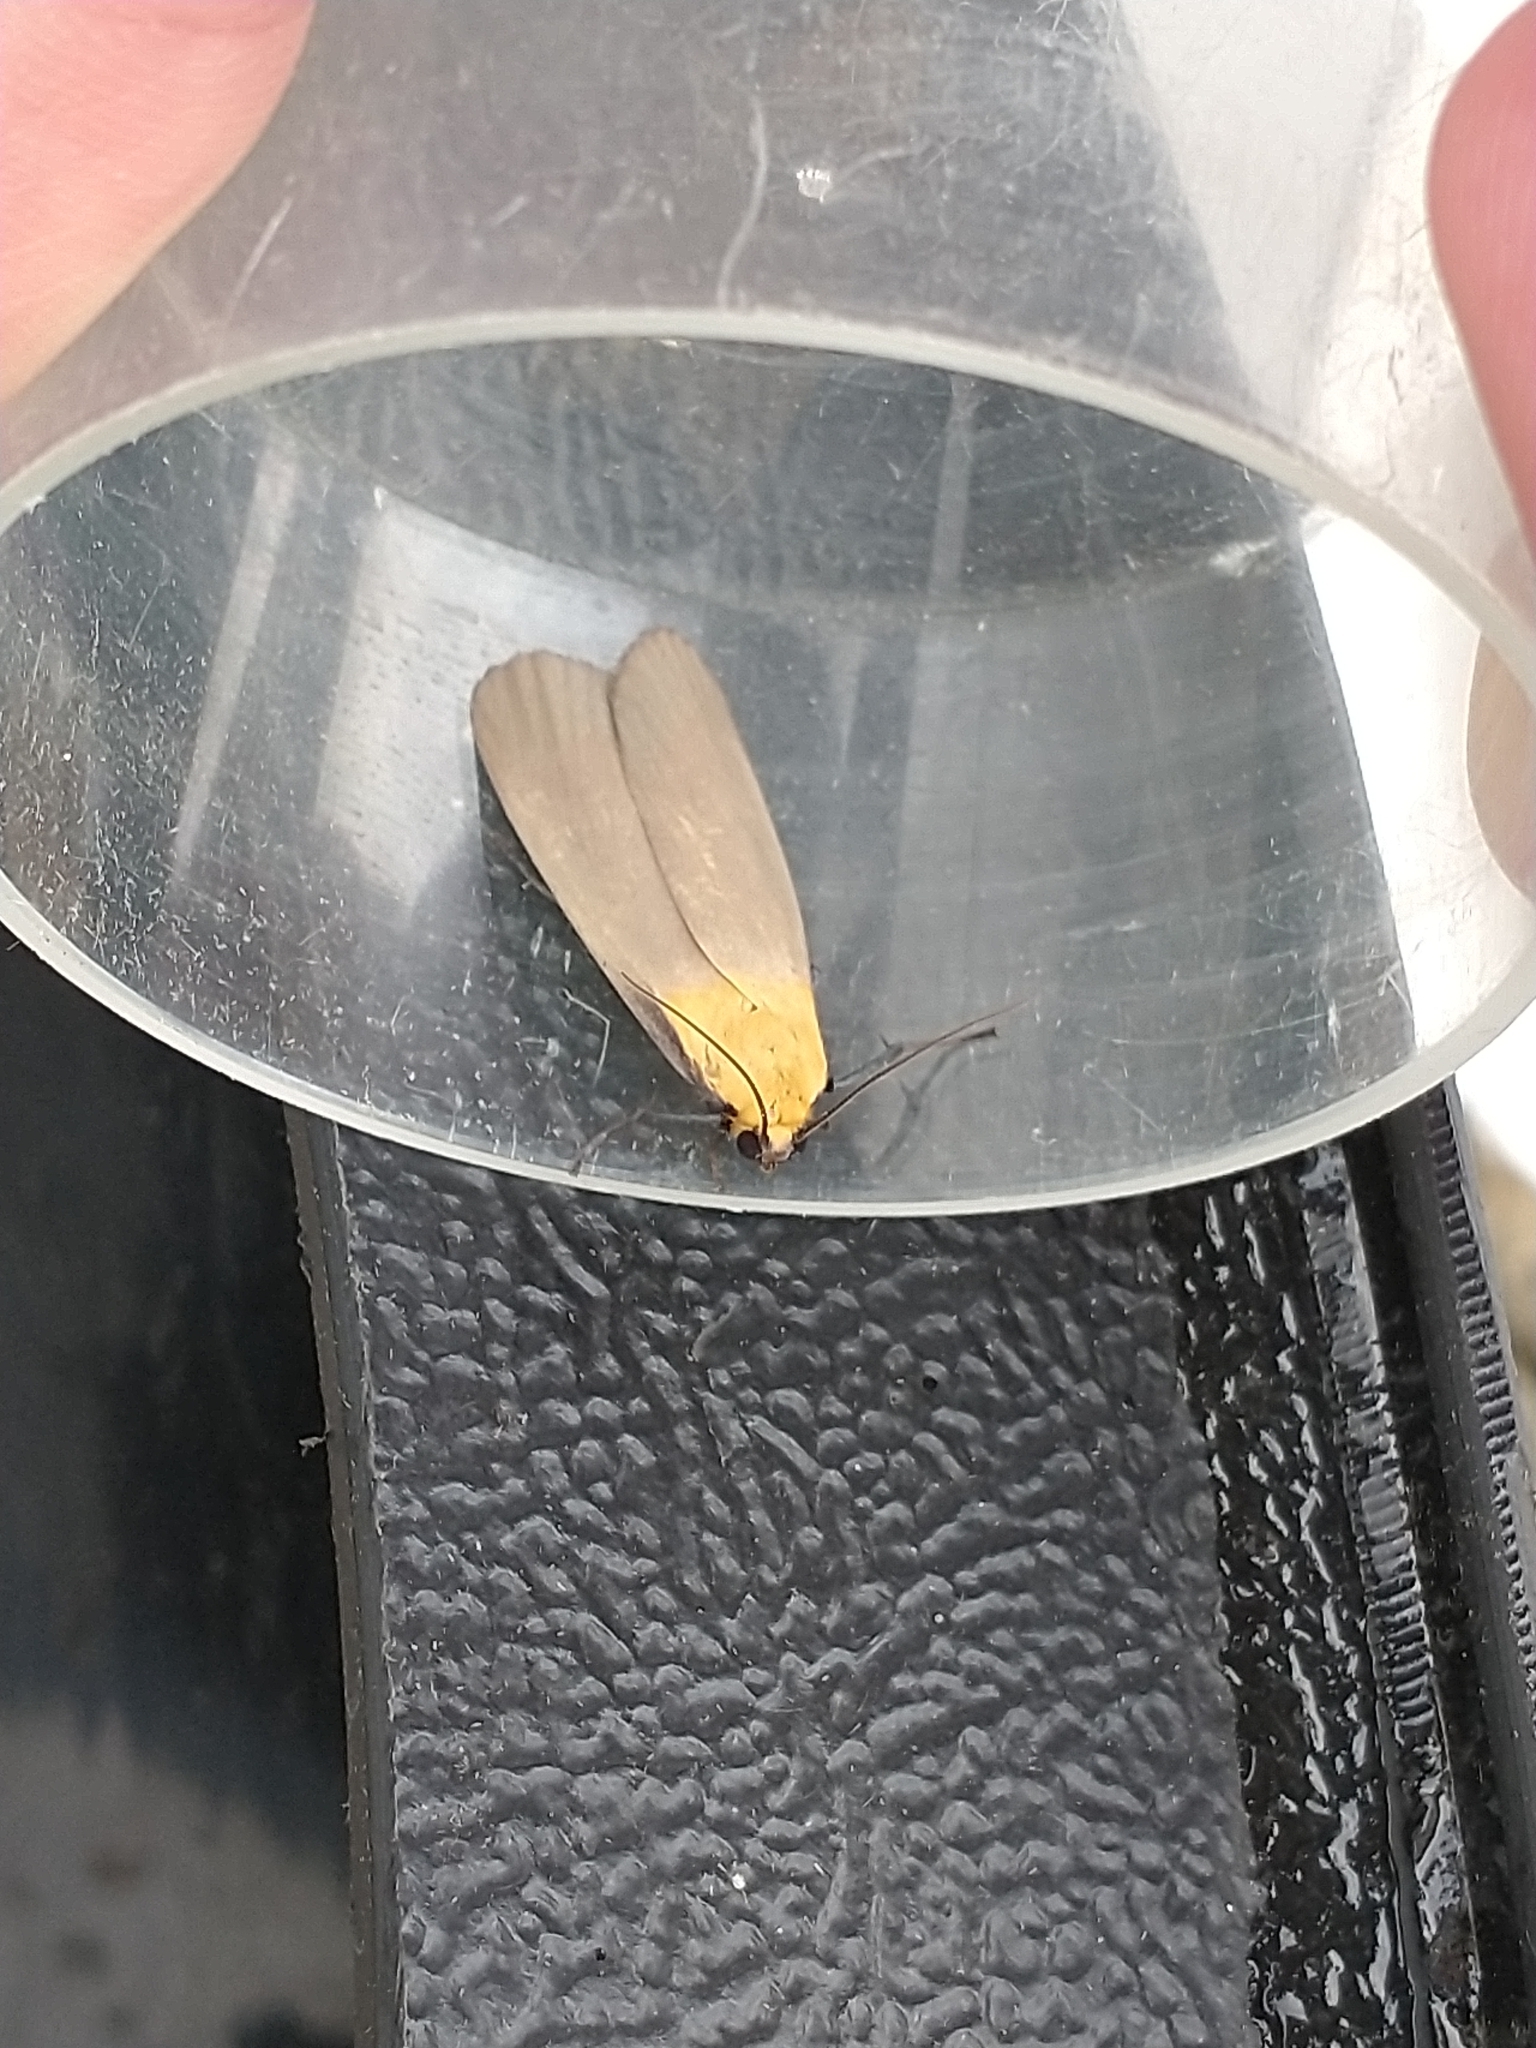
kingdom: Animalia
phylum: Arthropoda
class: Insecta
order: Lepidoptera
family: Erebidae
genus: Lithosia
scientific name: Lithosia quadra
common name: Four-spotted footman
